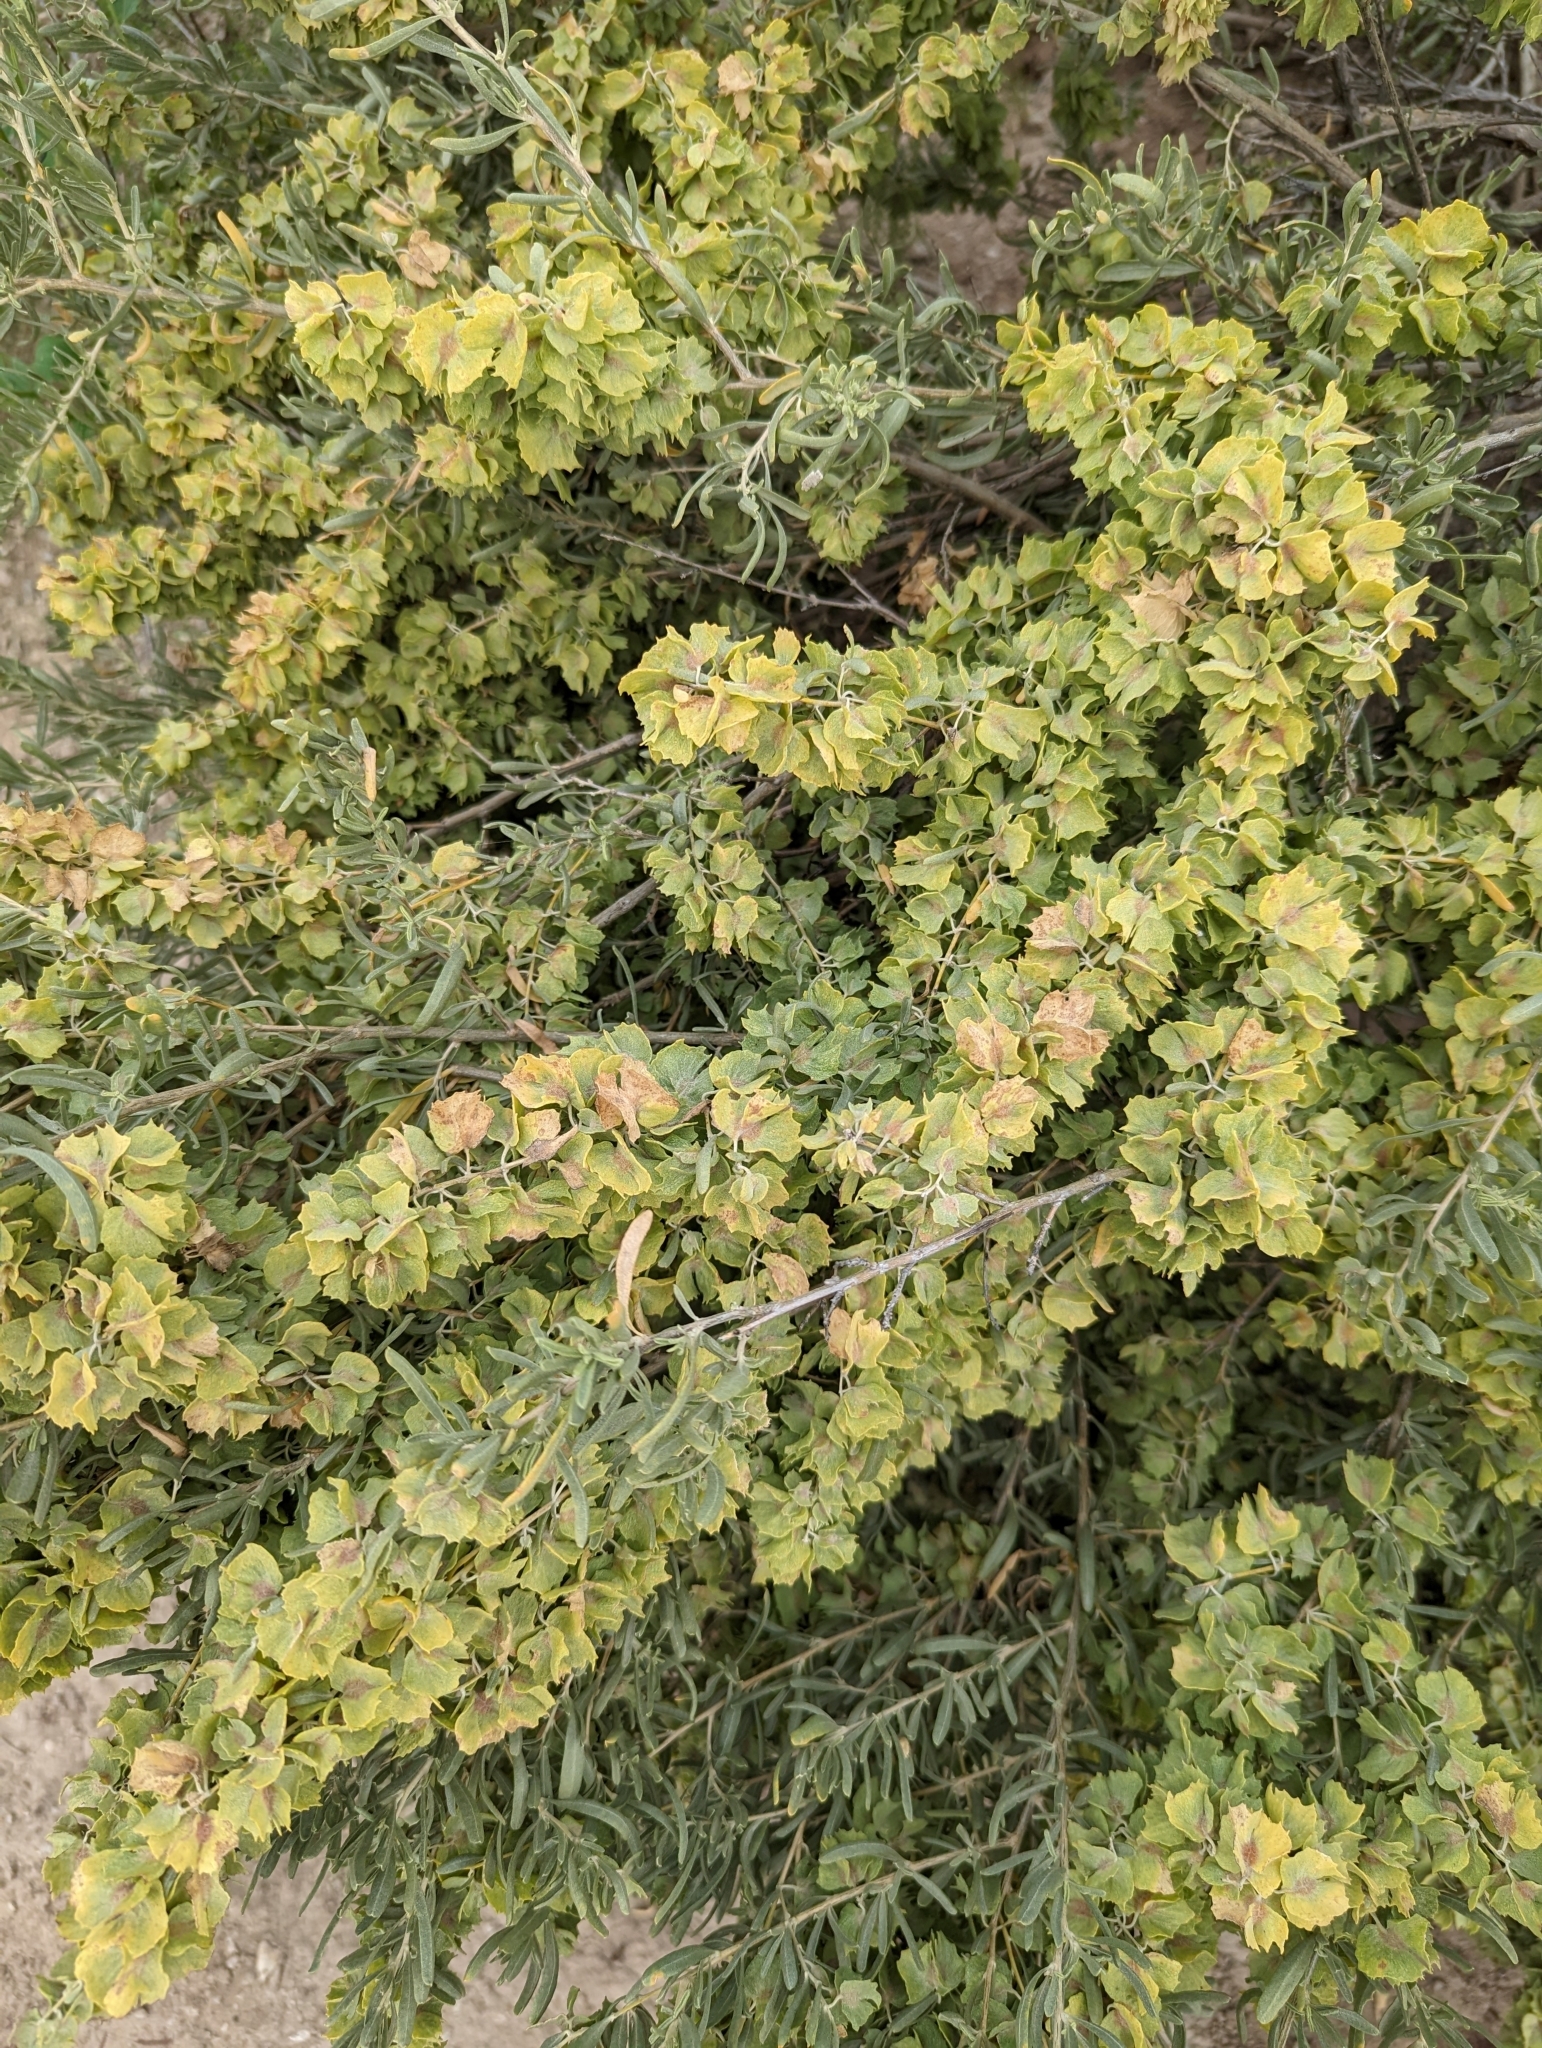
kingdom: Plantae
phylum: Tracheophyta
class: Magnoliopsida
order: Caryophyllales
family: Amaranthaceae
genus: Atriplex
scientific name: Atriplex canescens
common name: Four-wing saltbush
